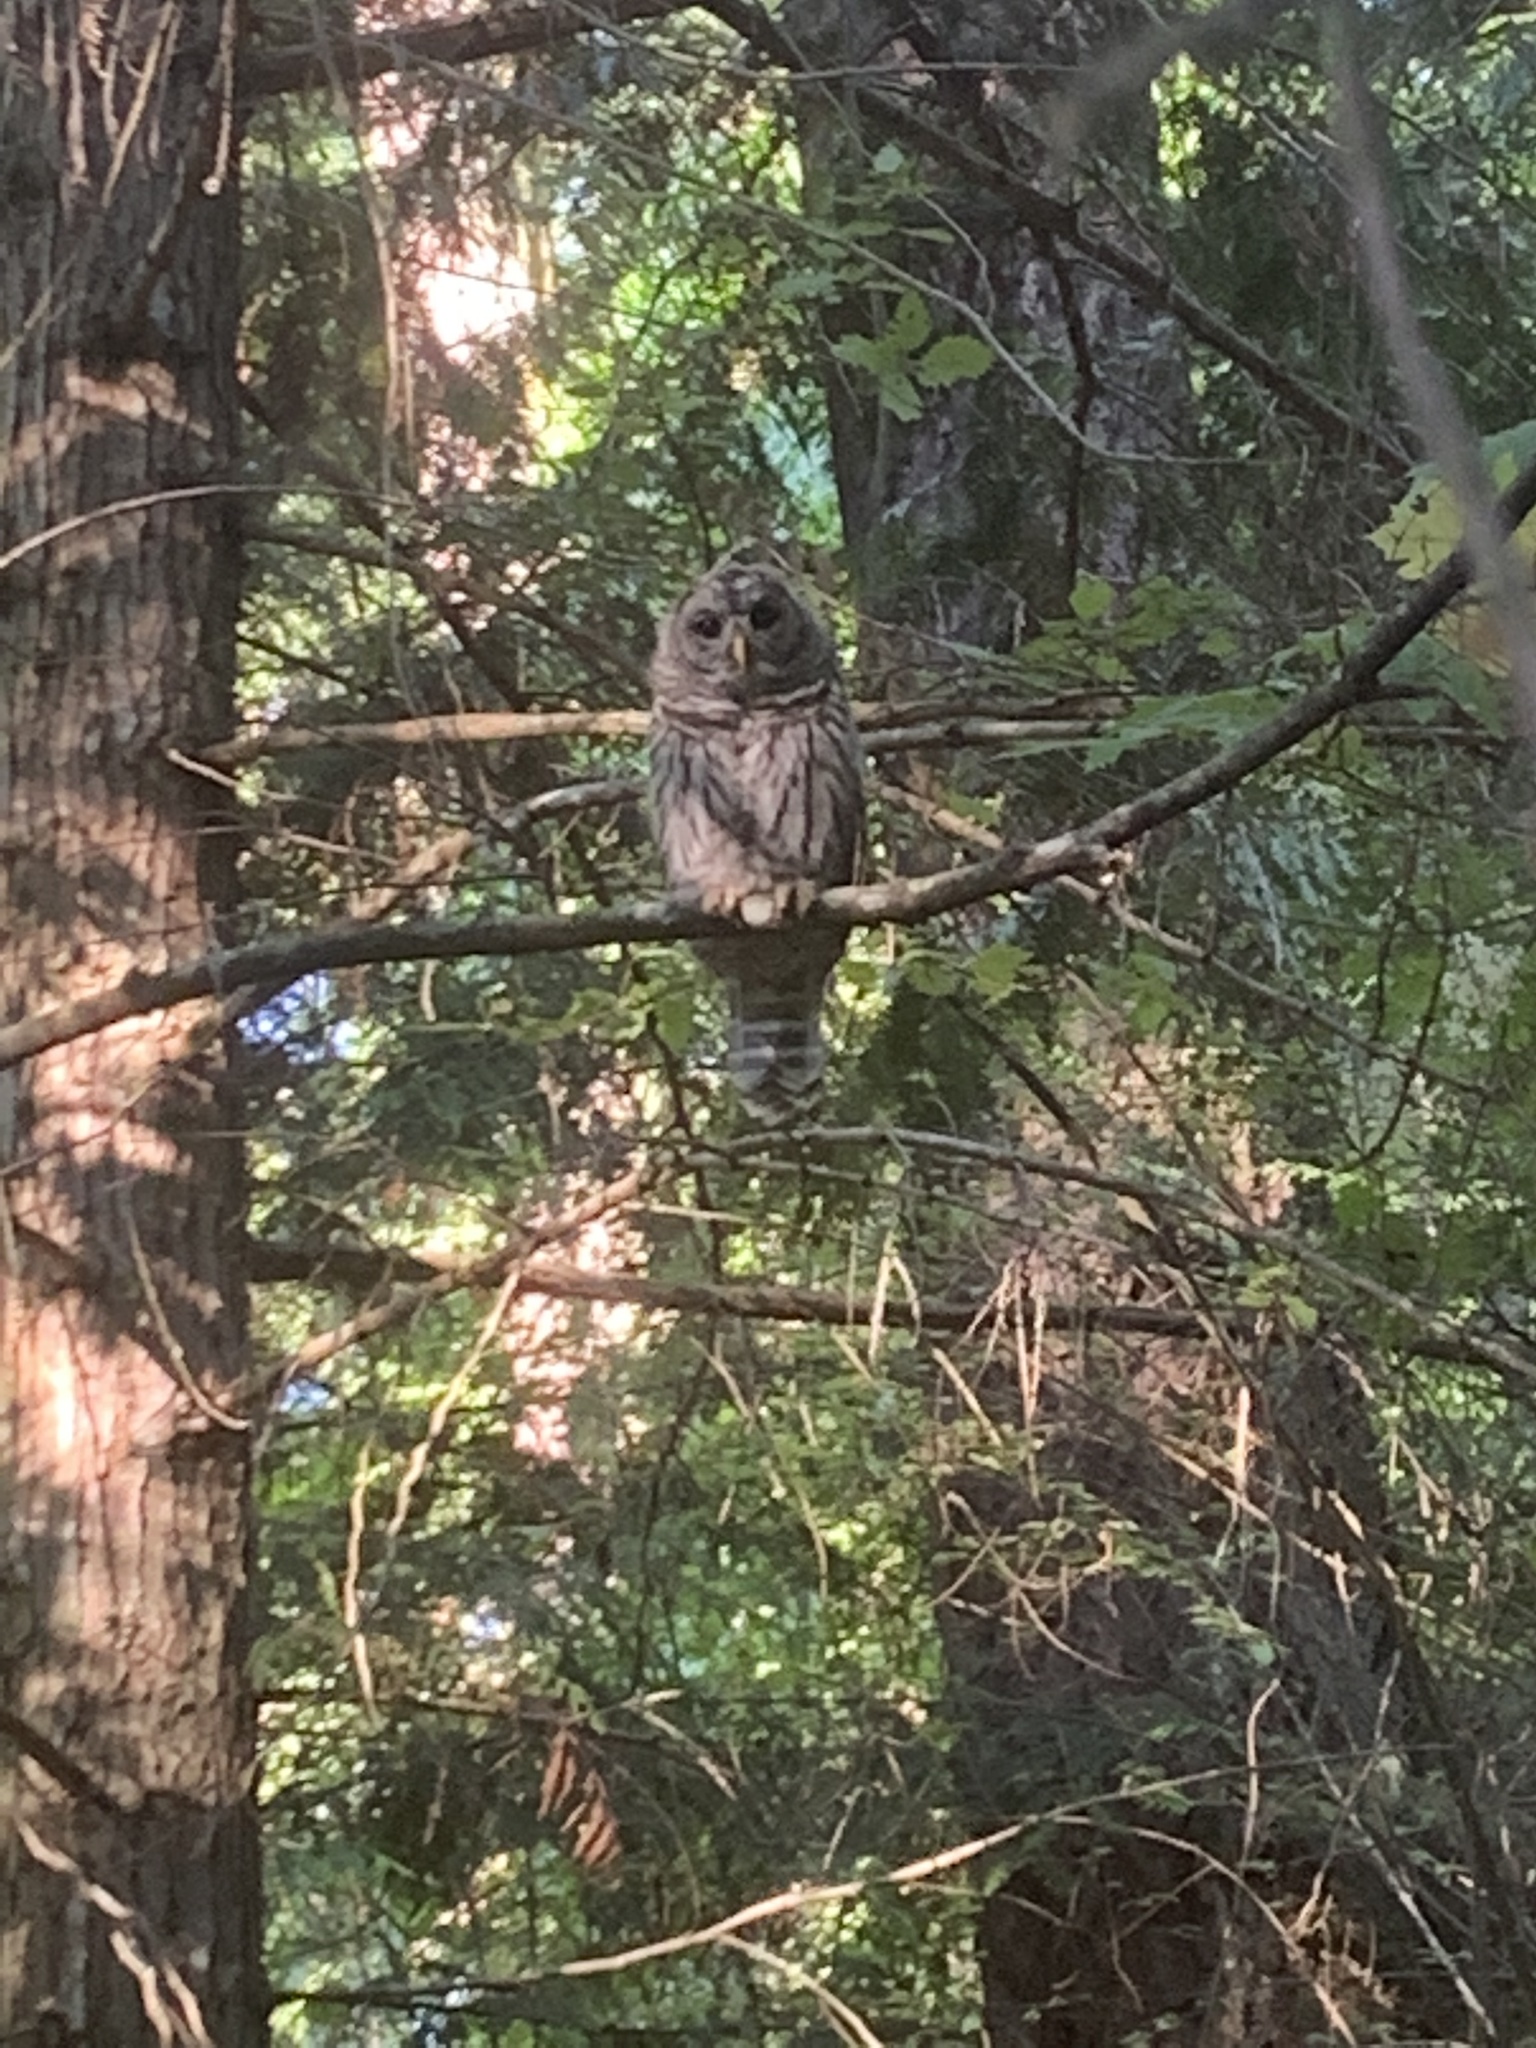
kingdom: Animalia
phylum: Chordata
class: Aves
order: Strigiformes
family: Strigidae
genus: Strix
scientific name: Strix varia
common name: Barred owl
